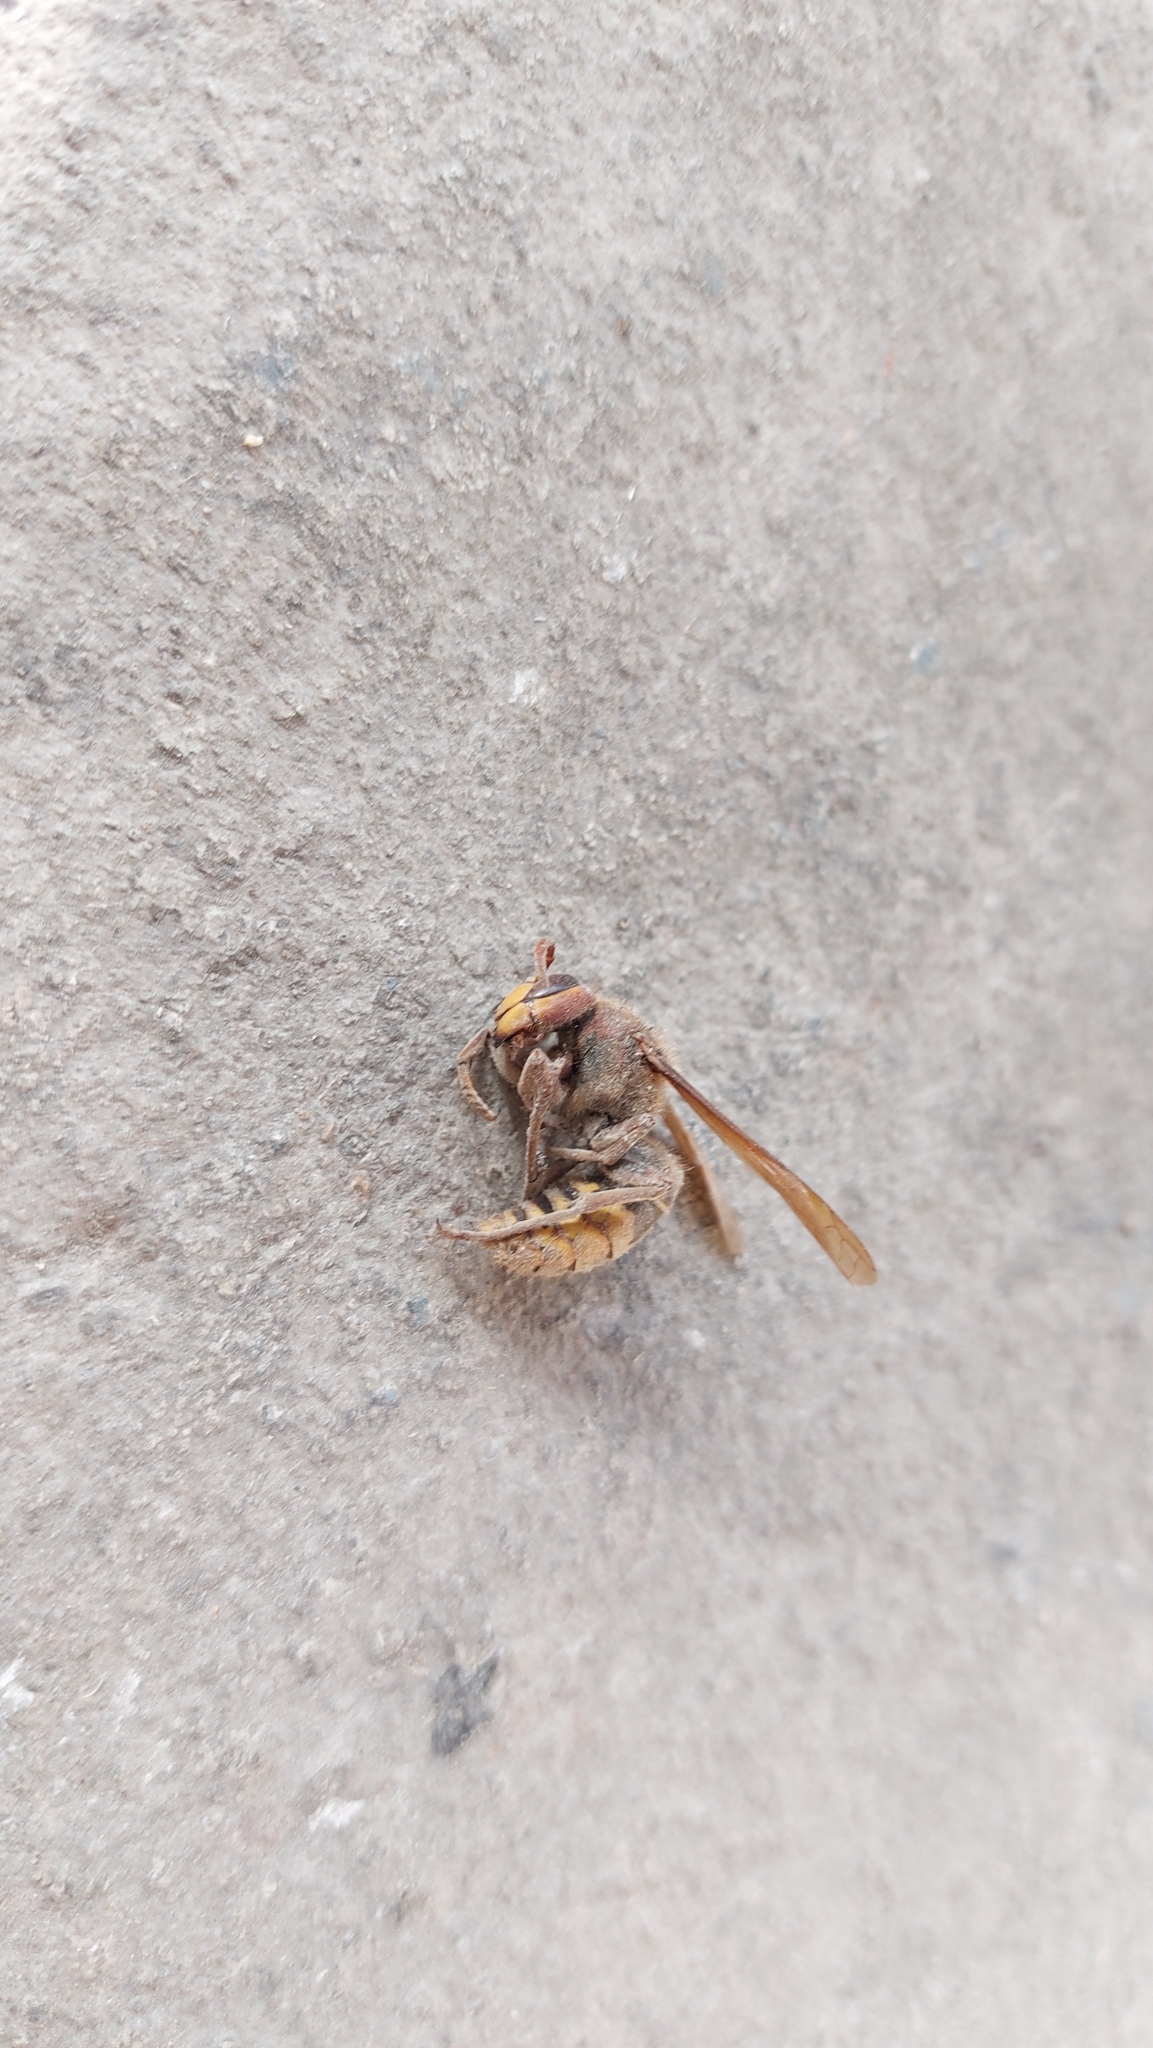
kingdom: Animalia
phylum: Arthropoda
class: Insecta
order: Hymenoptera
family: Vespidae
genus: Vespa
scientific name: Vespa crabro
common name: Hornet
